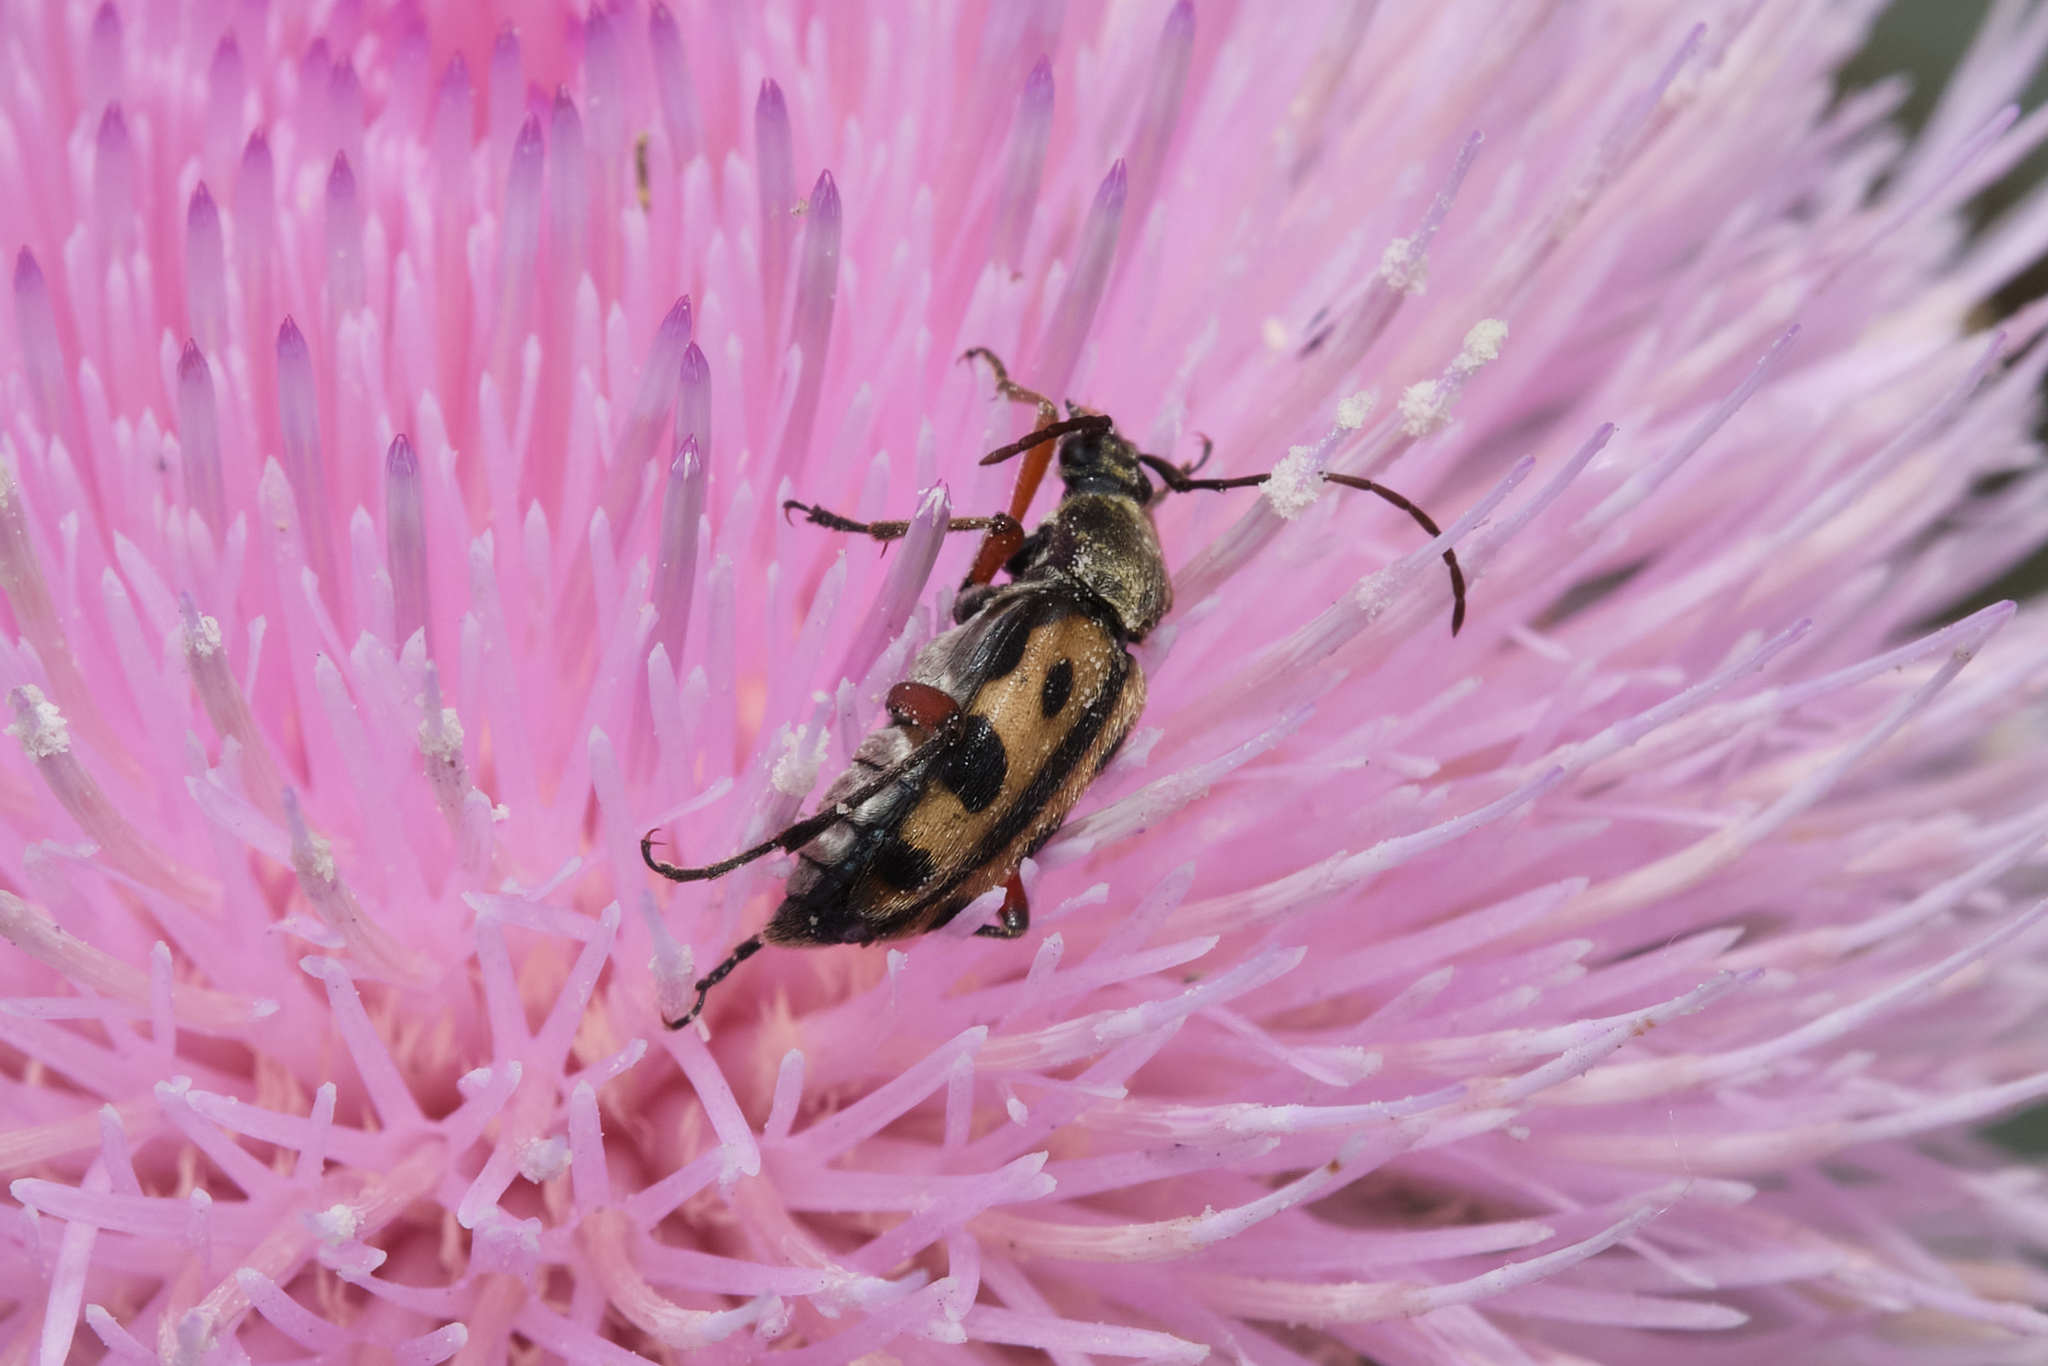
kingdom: Animalia
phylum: Arthropoda
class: Insecta
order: Coleoptera
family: Cerambycidae
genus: Judolia
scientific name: Judolia sexspilota
